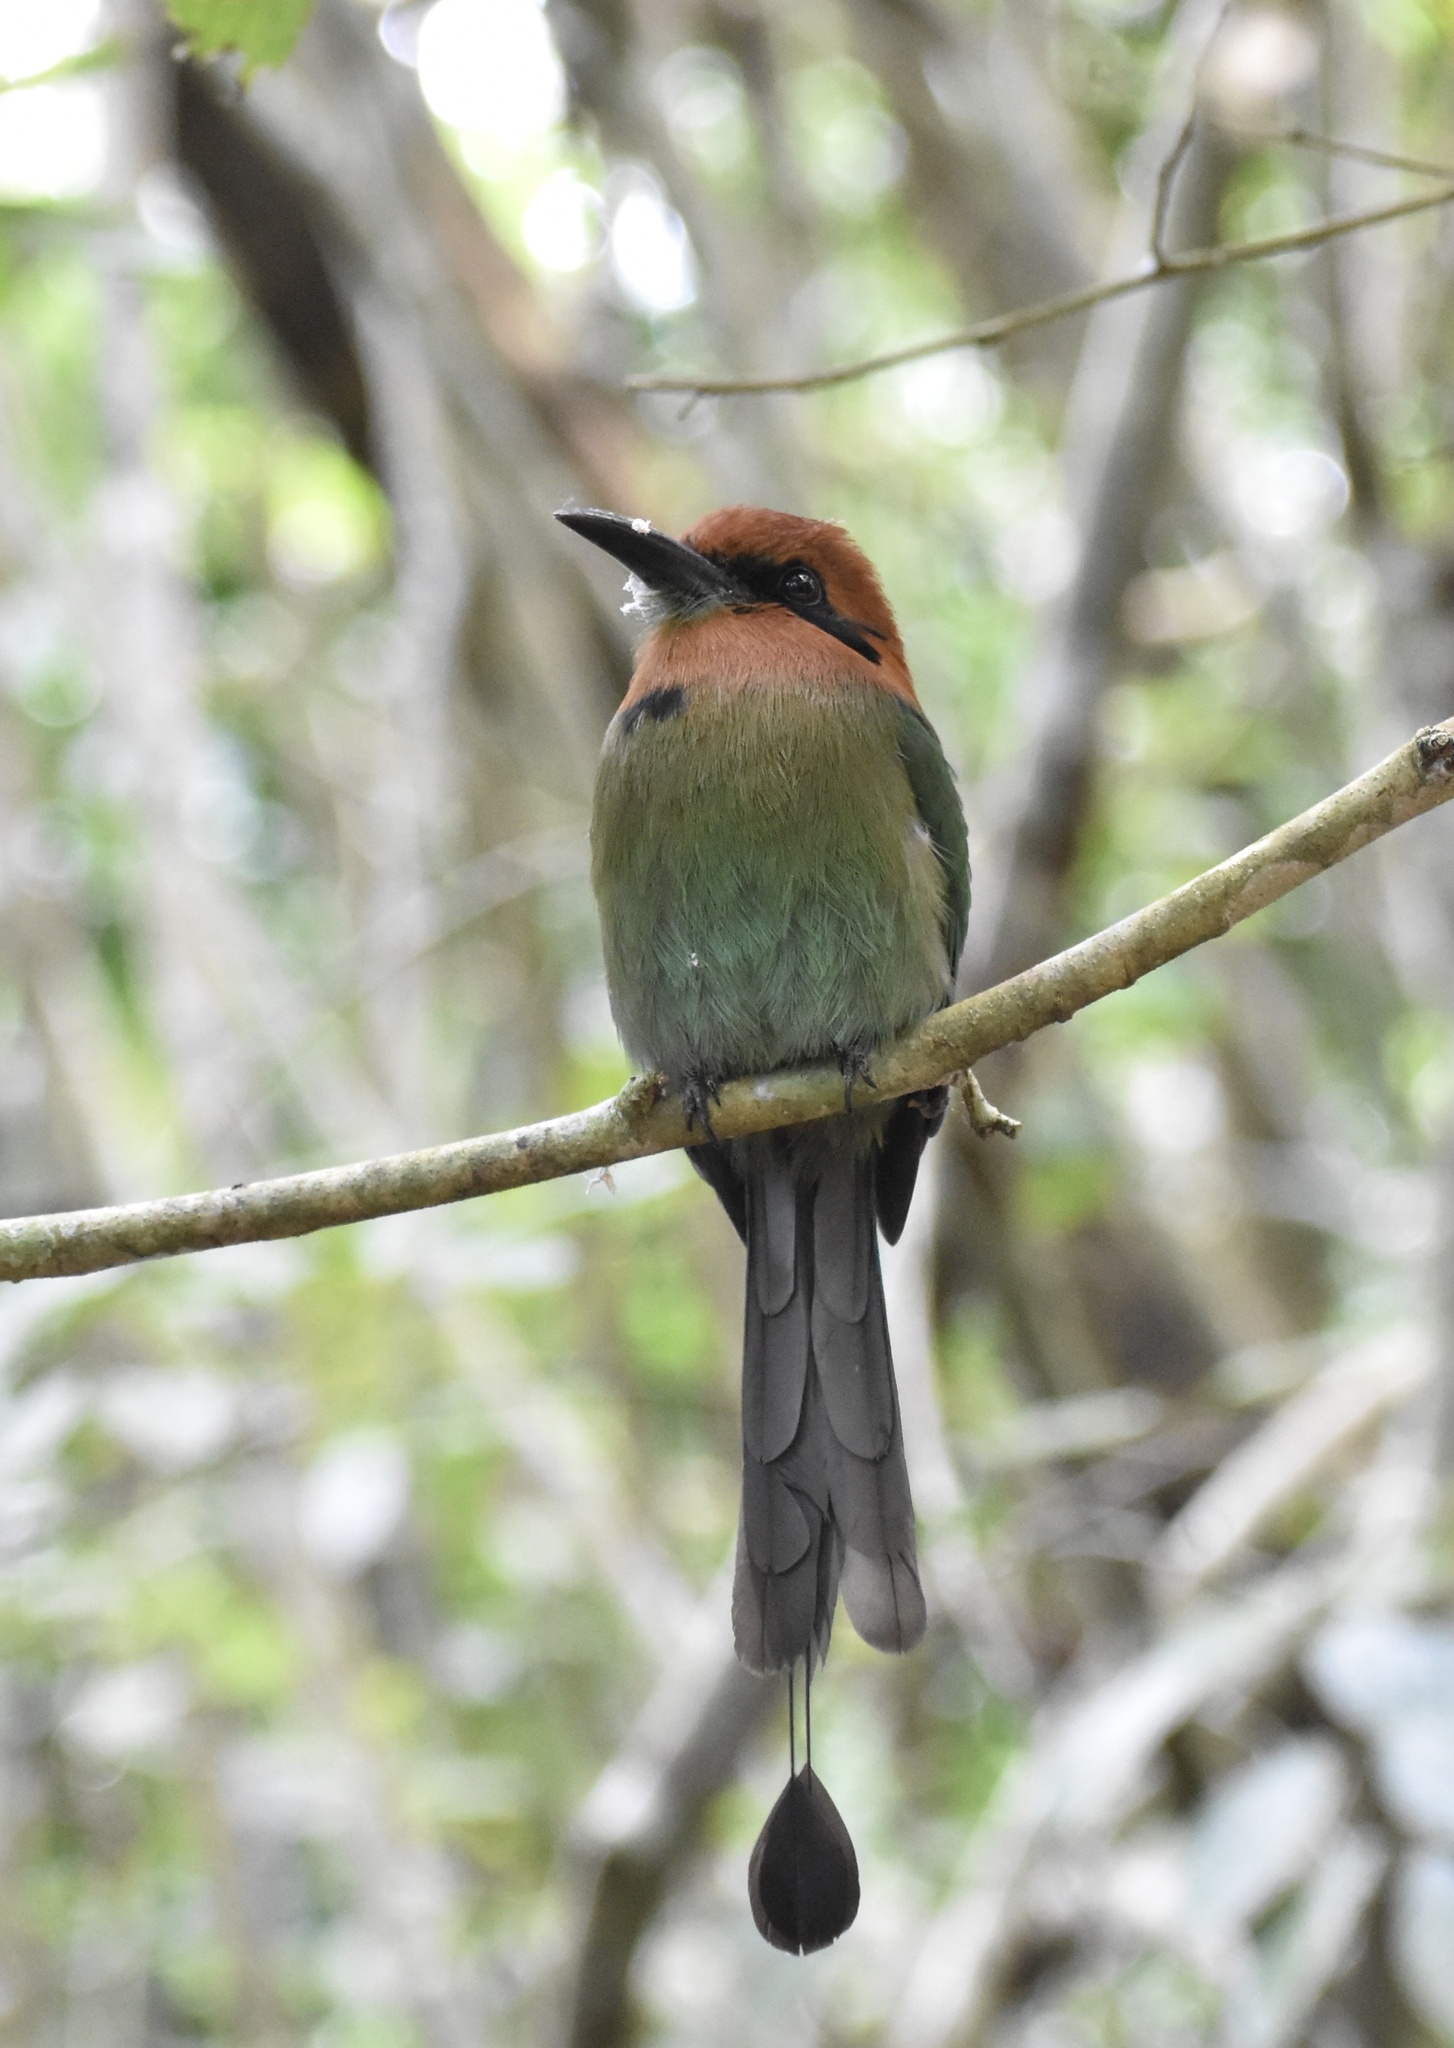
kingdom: Animalia
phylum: Chordata
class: Aves
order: Coraciiformes
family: Momotidae
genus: Electron
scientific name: Electron platyrhynchum
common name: Broad-billed motmot
